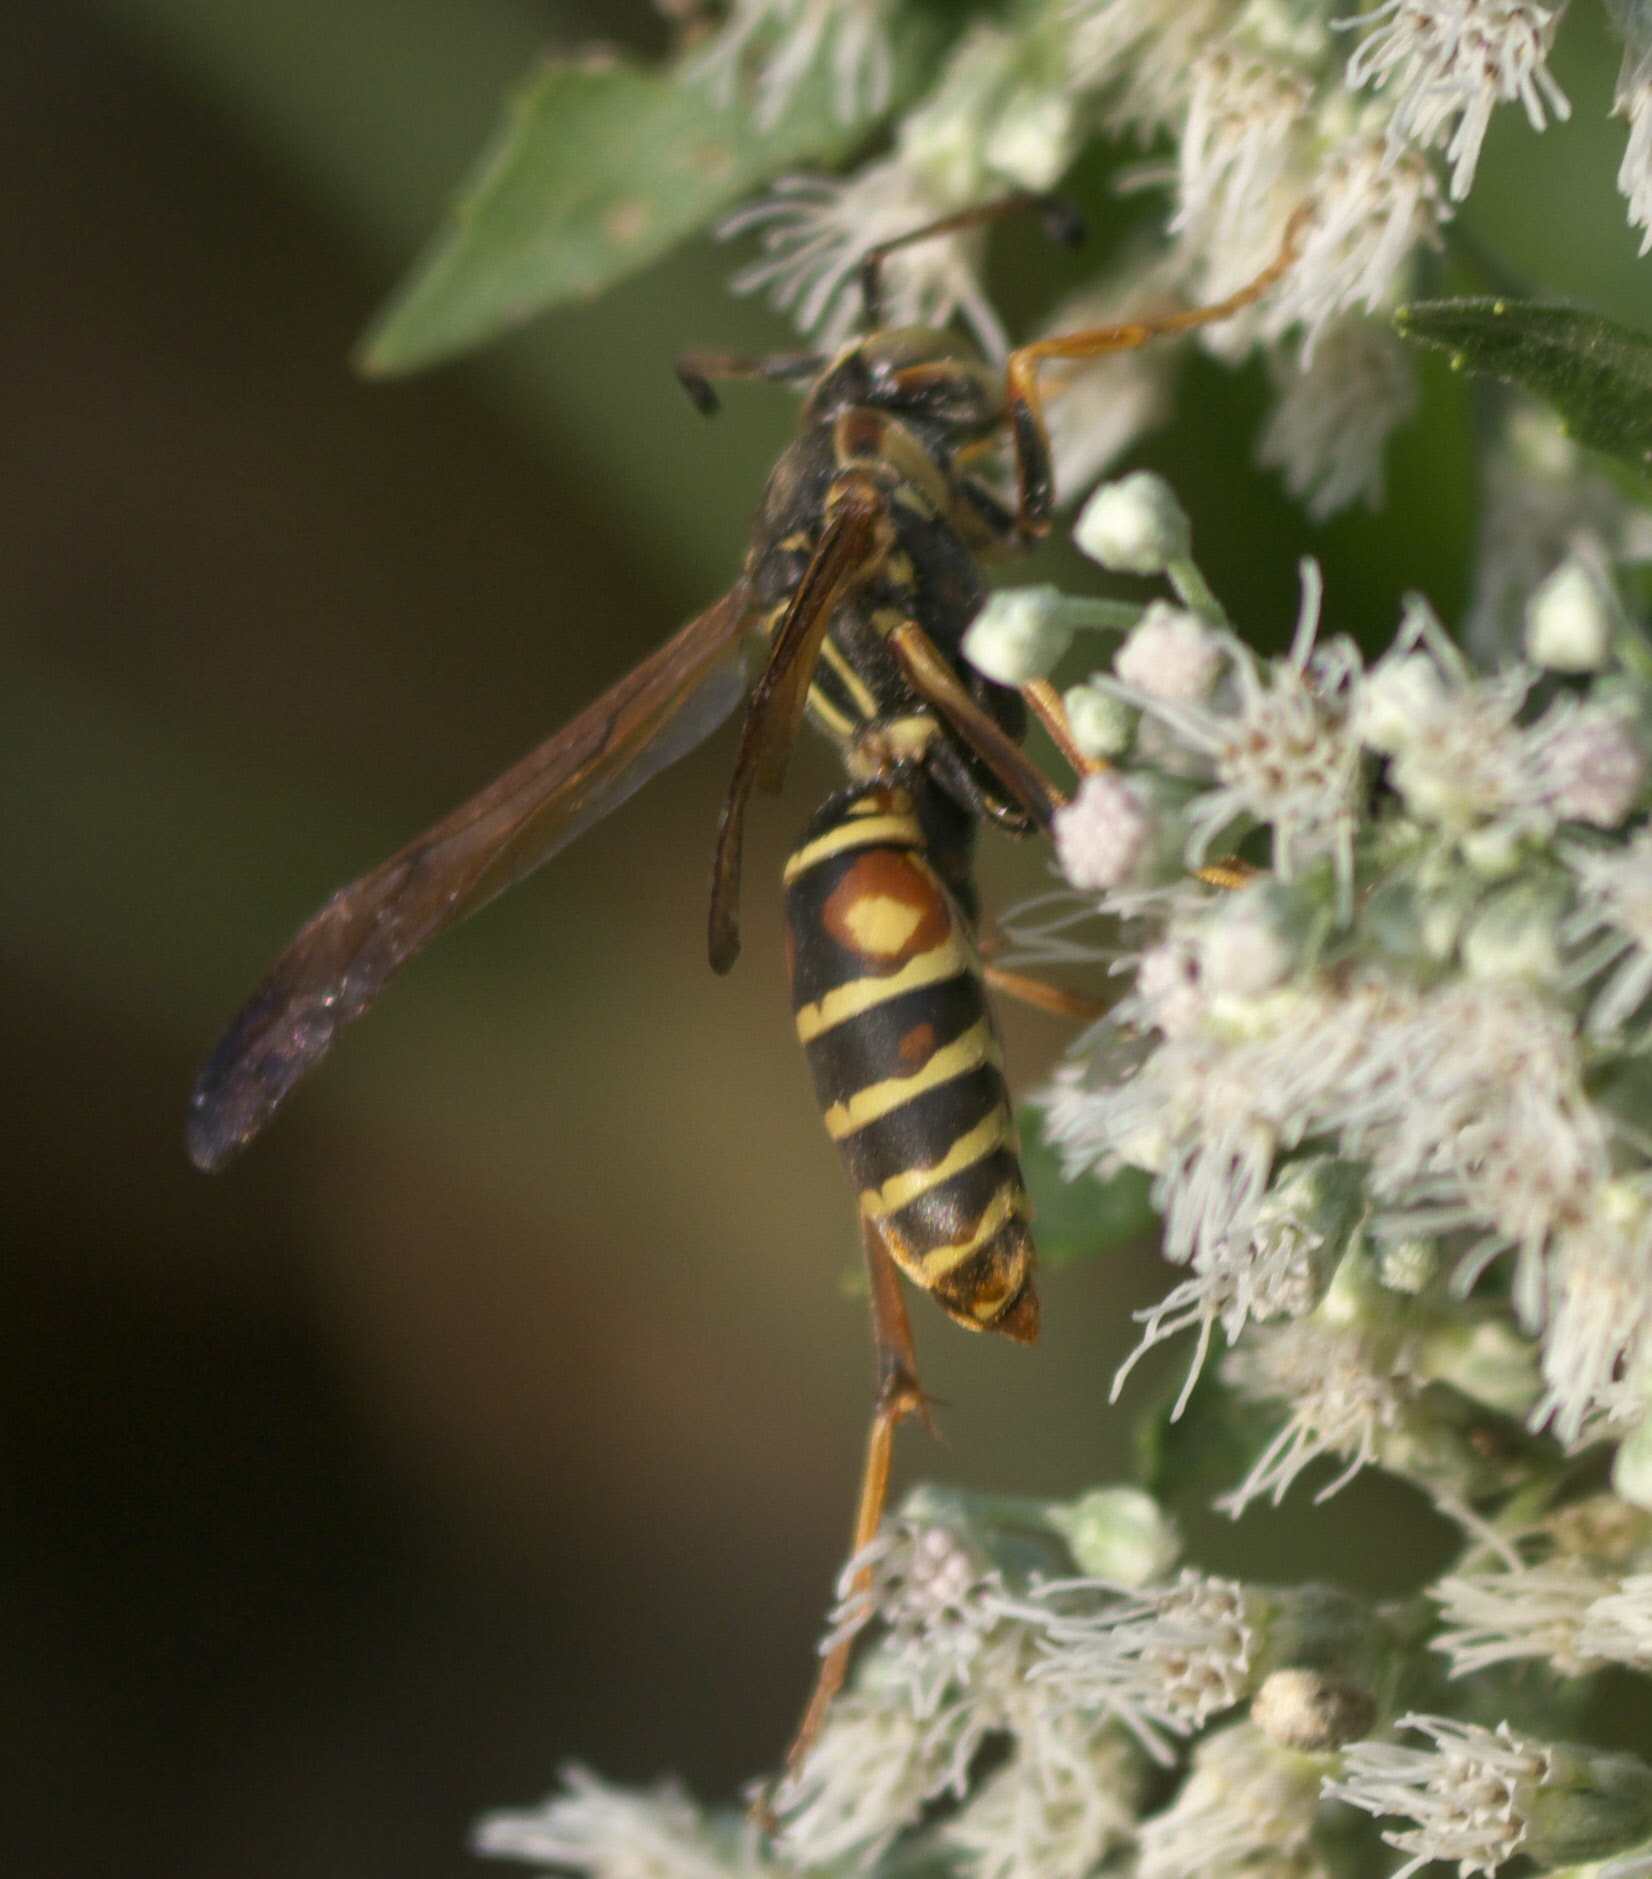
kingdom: Animalia
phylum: Arthropoda
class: Insecta
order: Hymenoptera
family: Eumenidae
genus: Polistes
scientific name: Polistes fuscatus
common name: Dark paper wasp
